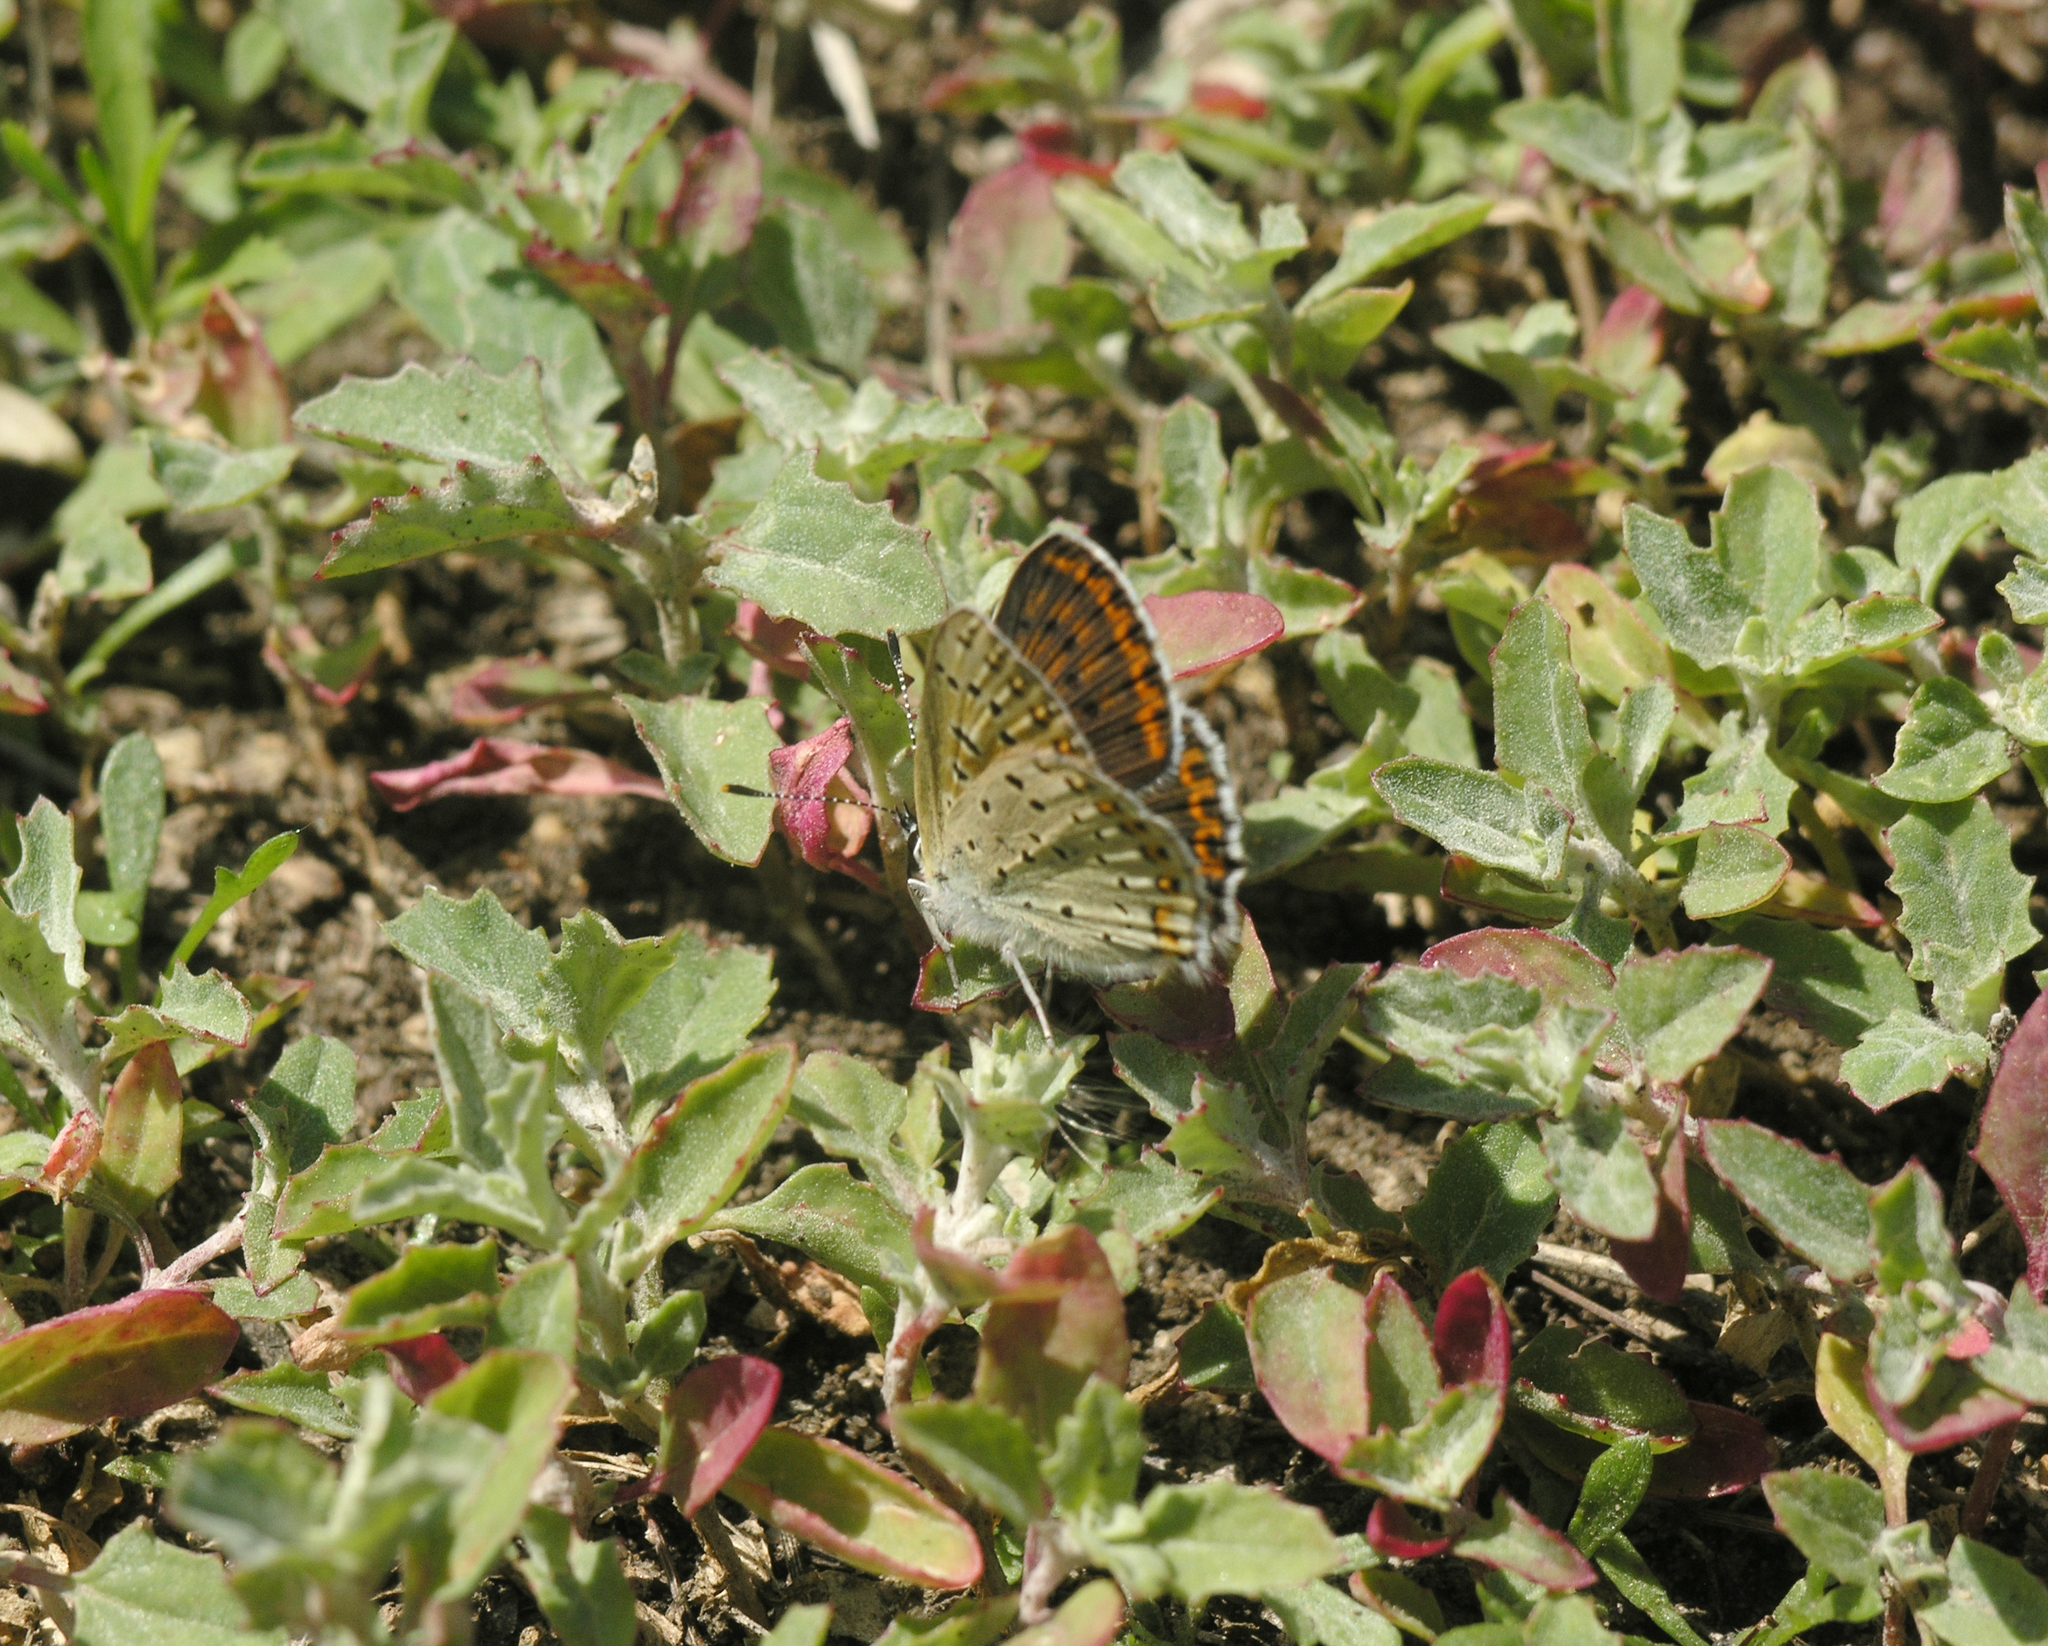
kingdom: Animalia
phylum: Arthropoda
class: Insecta
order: Lepidoptera
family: Lycaenidae
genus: Loweia
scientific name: Loweia tityrus
